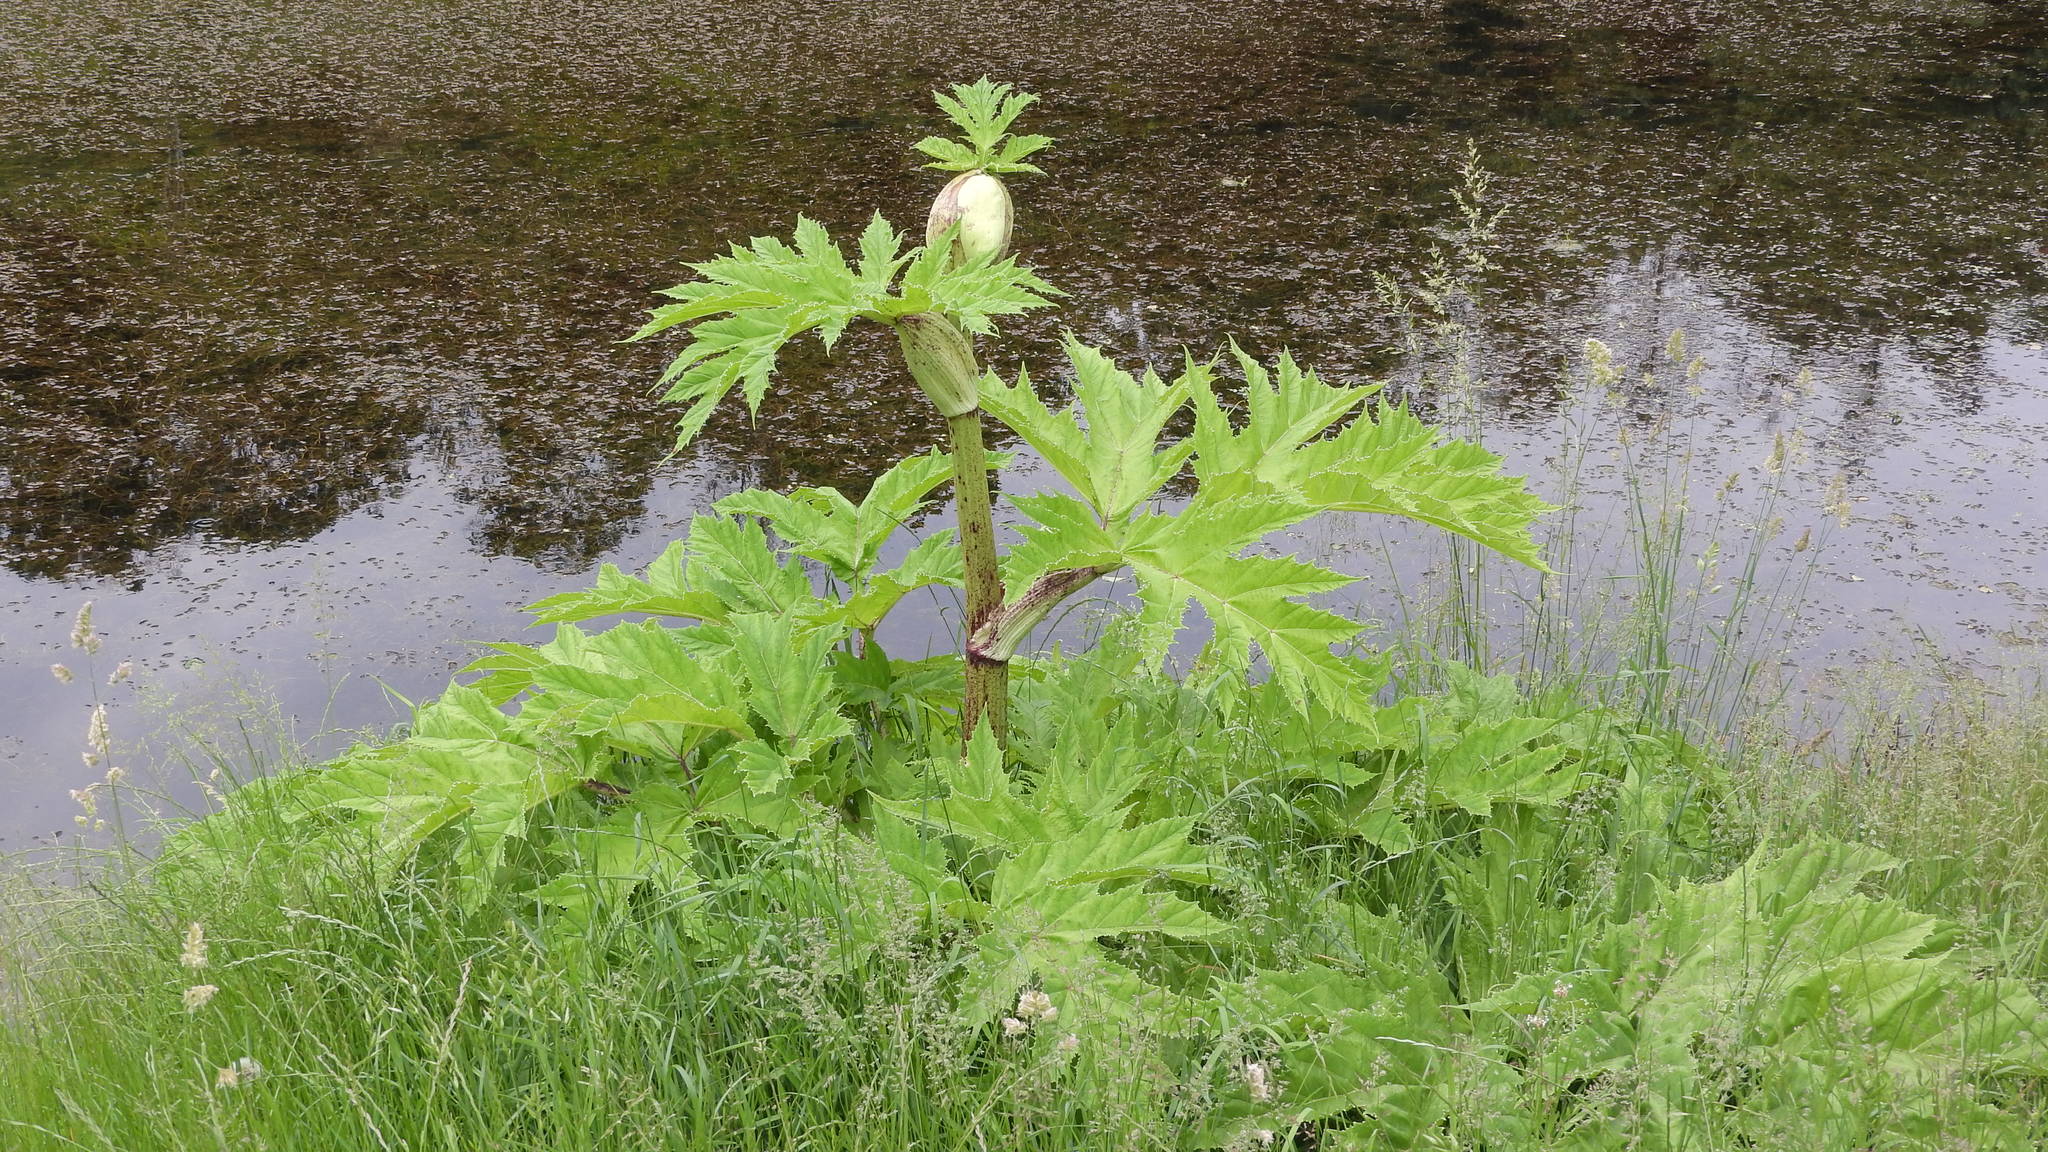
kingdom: Plantae
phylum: Tracheophyta
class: Magnoliopsida
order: Apiales
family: Apiaceae
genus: Heracleum
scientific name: Heracleum mantegazzianum
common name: Giant hogweed
